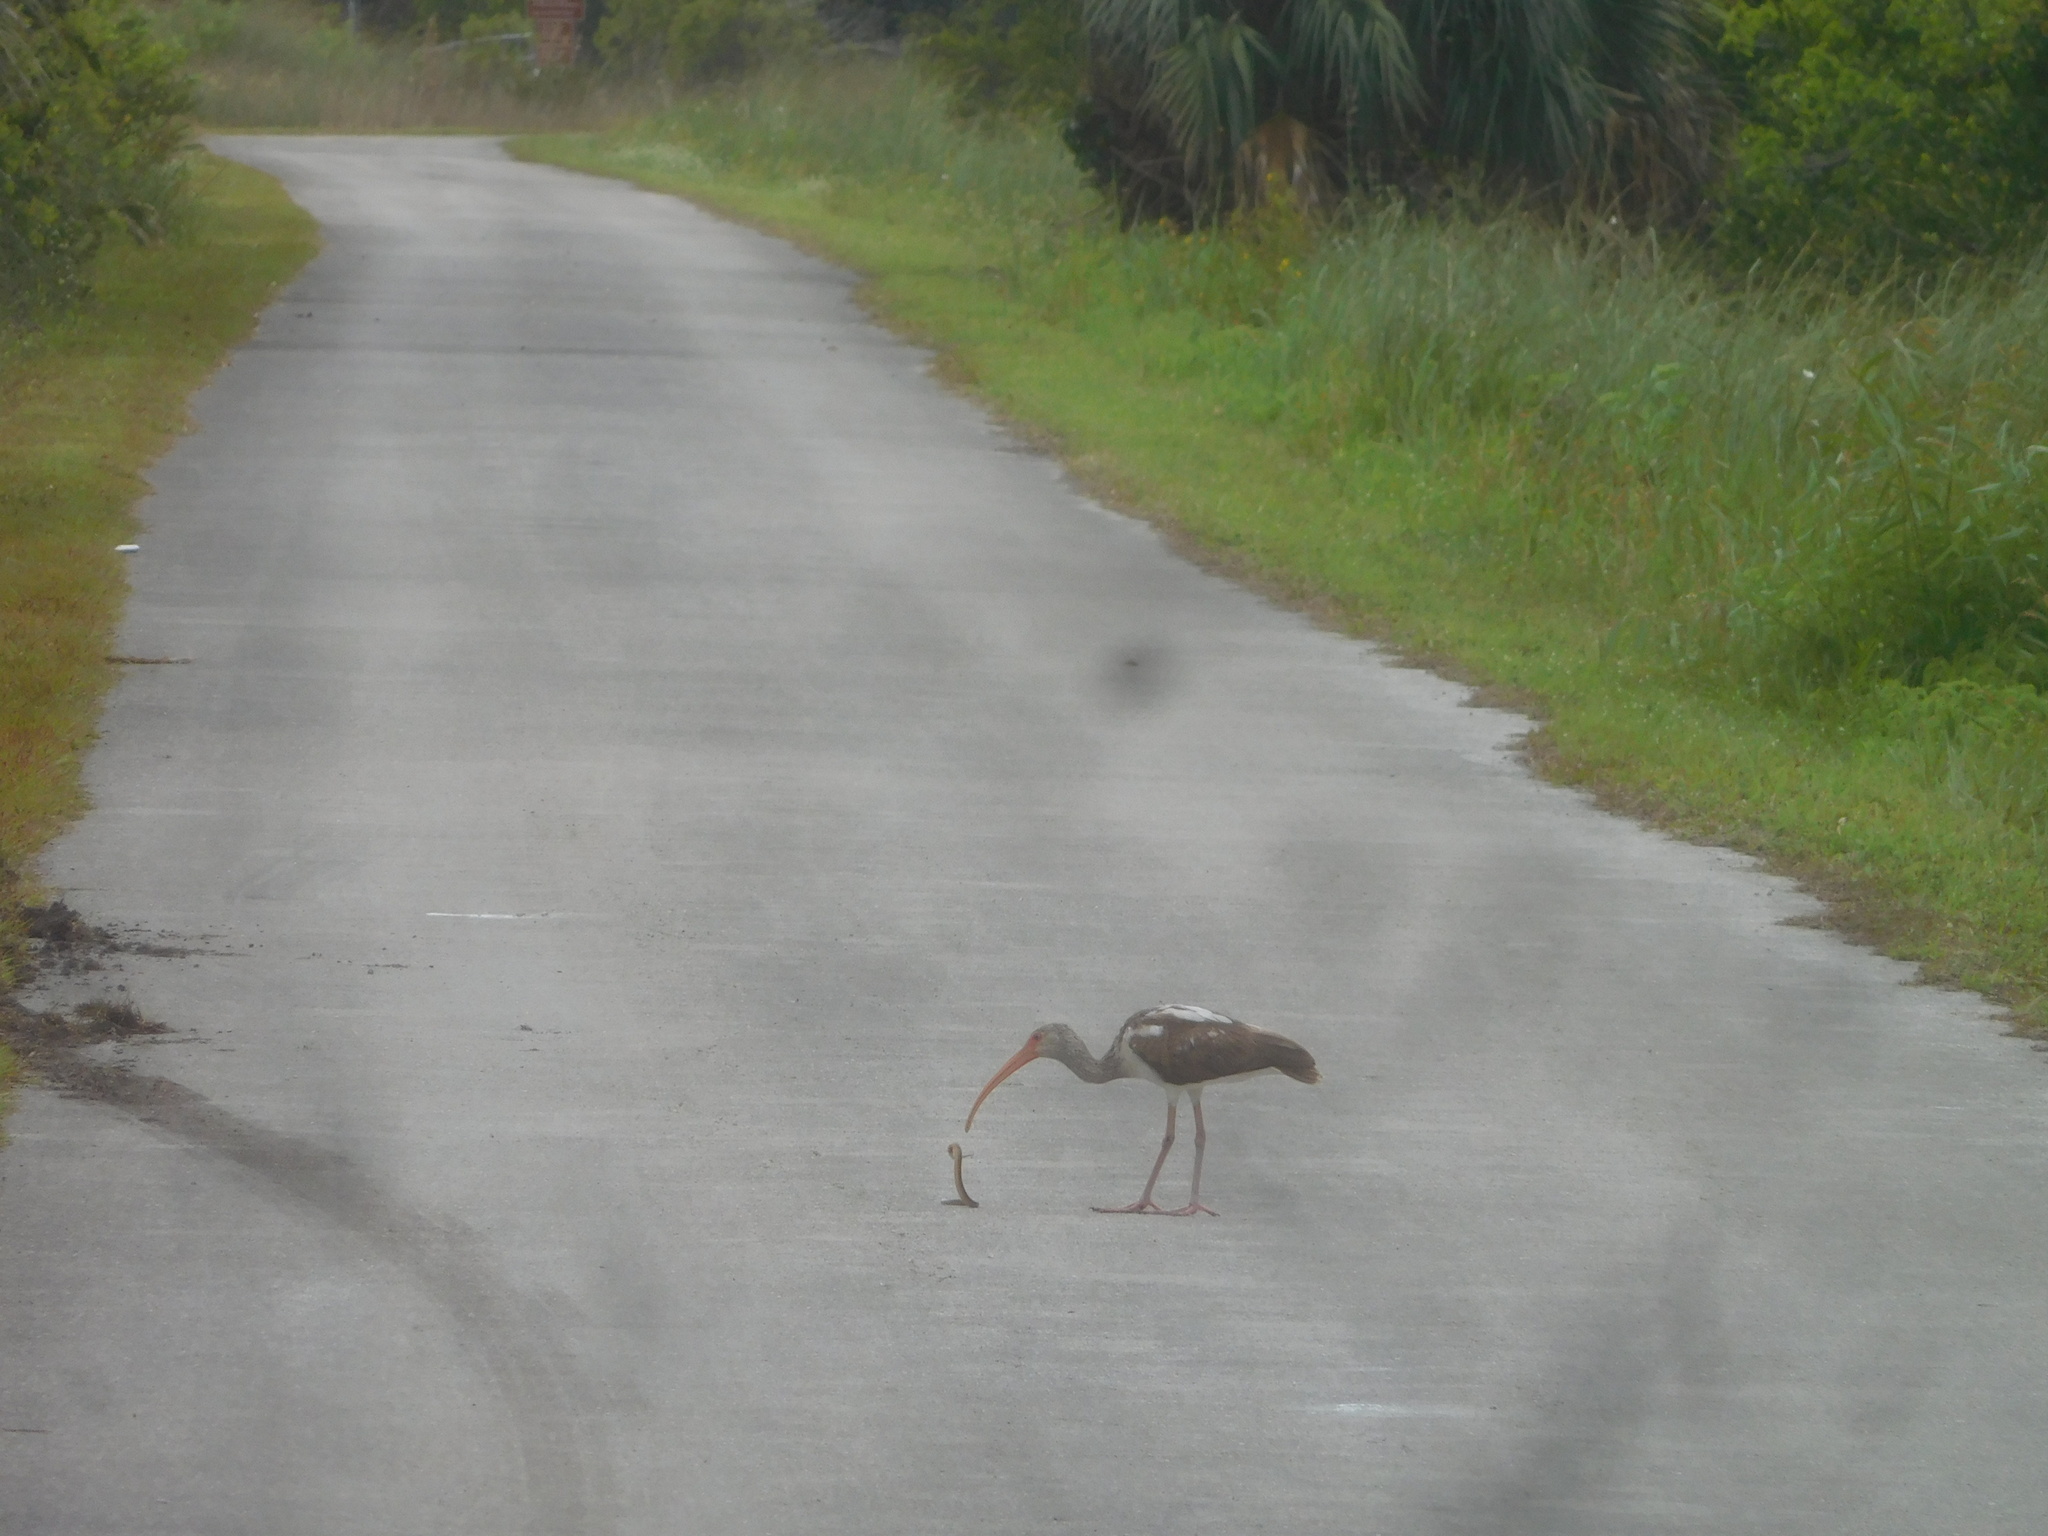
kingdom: Animalia
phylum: Chordata
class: Aves
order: Pelecaniformes
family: Threskiornithidae
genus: Eudocimus
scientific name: Eudocimus albus
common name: White ibis
